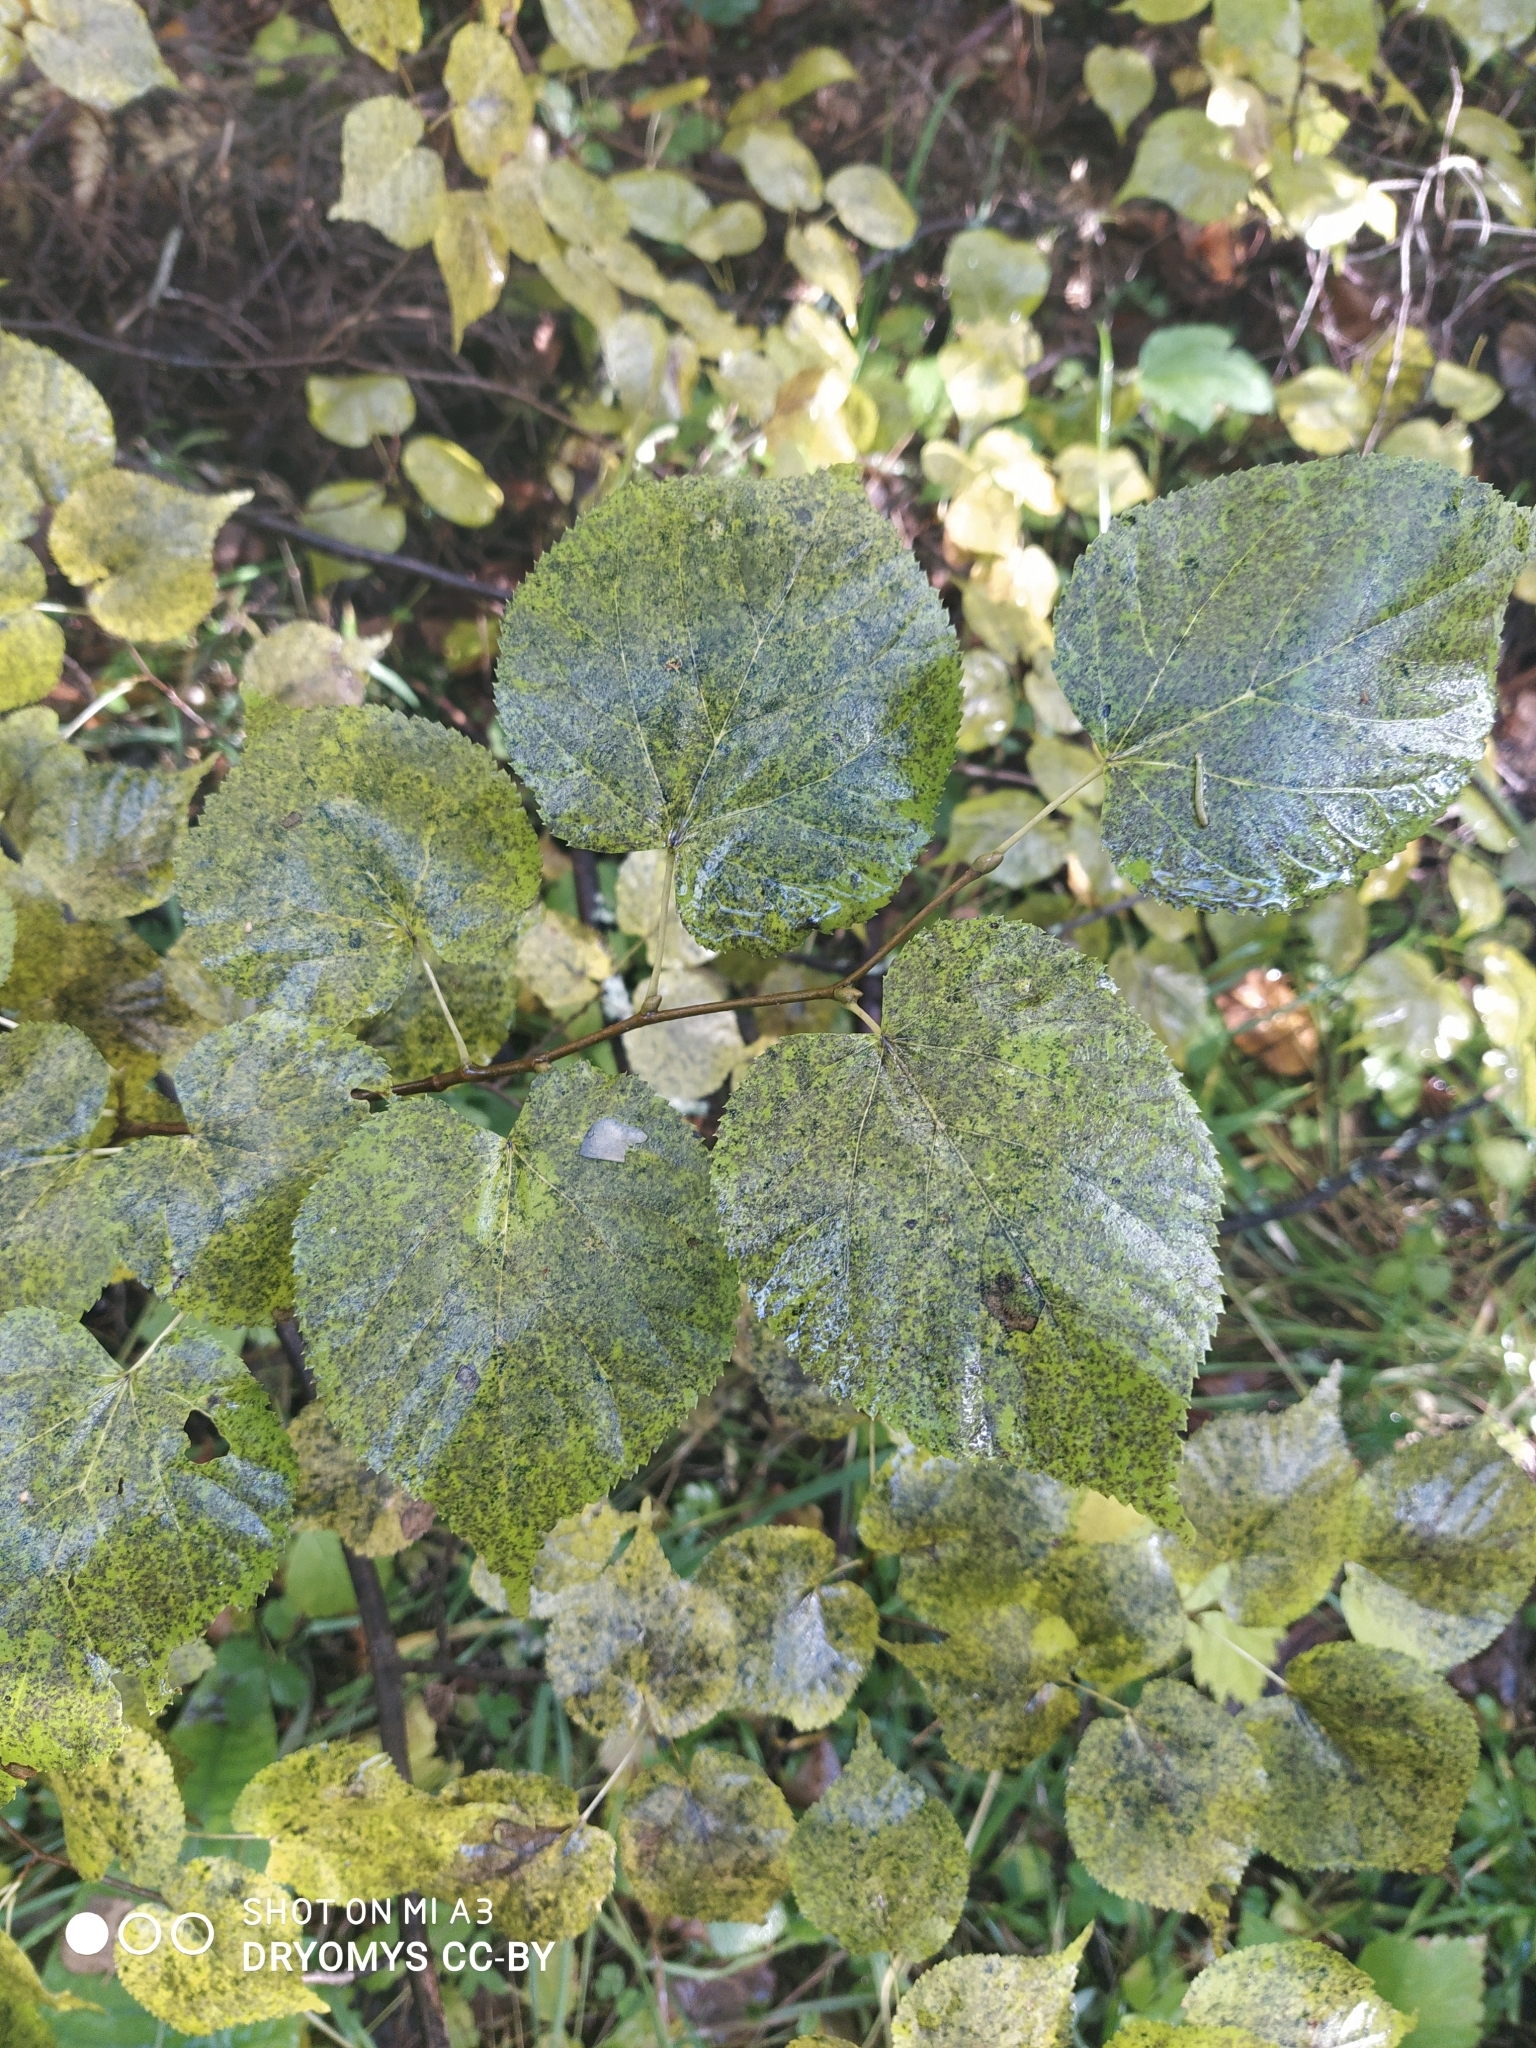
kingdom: Plantae
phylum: Tracheophyta
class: Magnoliopsida
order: Malvales
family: Malvaceae
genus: Tilia
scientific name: Tilia cordata
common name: Small-leaved lime
